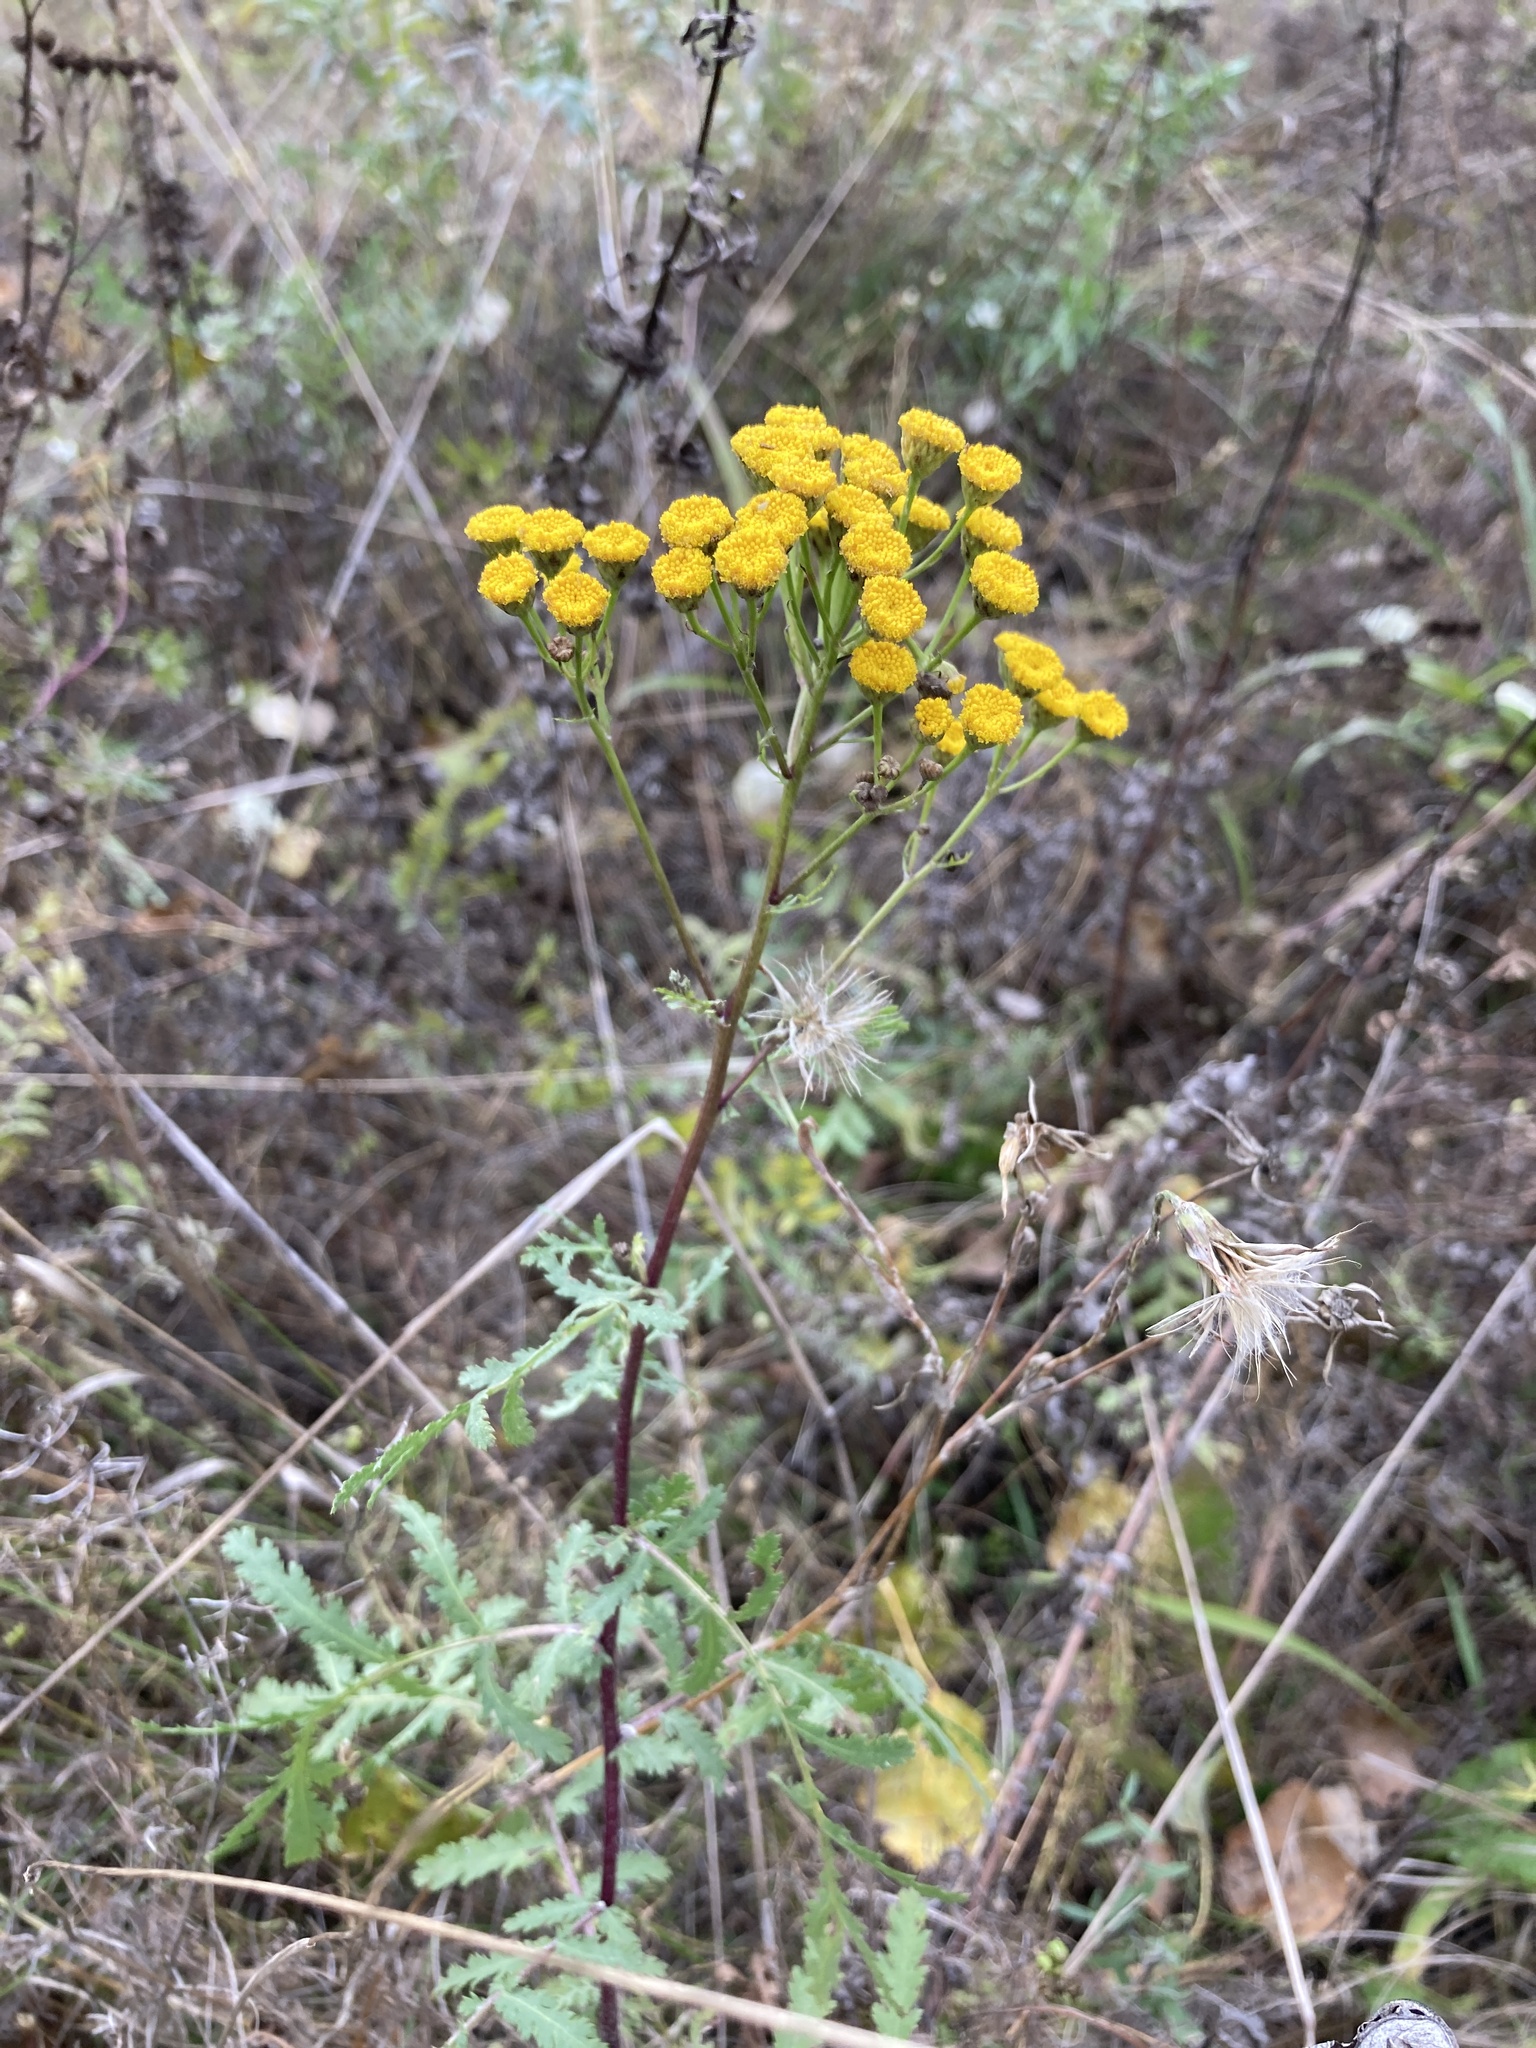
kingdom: Plantae
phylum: Tracheophyta
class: Magnoliopsida
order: Asterales
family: Asteraceae
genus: Tanacetum
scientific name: Tanacetum vulgare
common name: Common tansy
